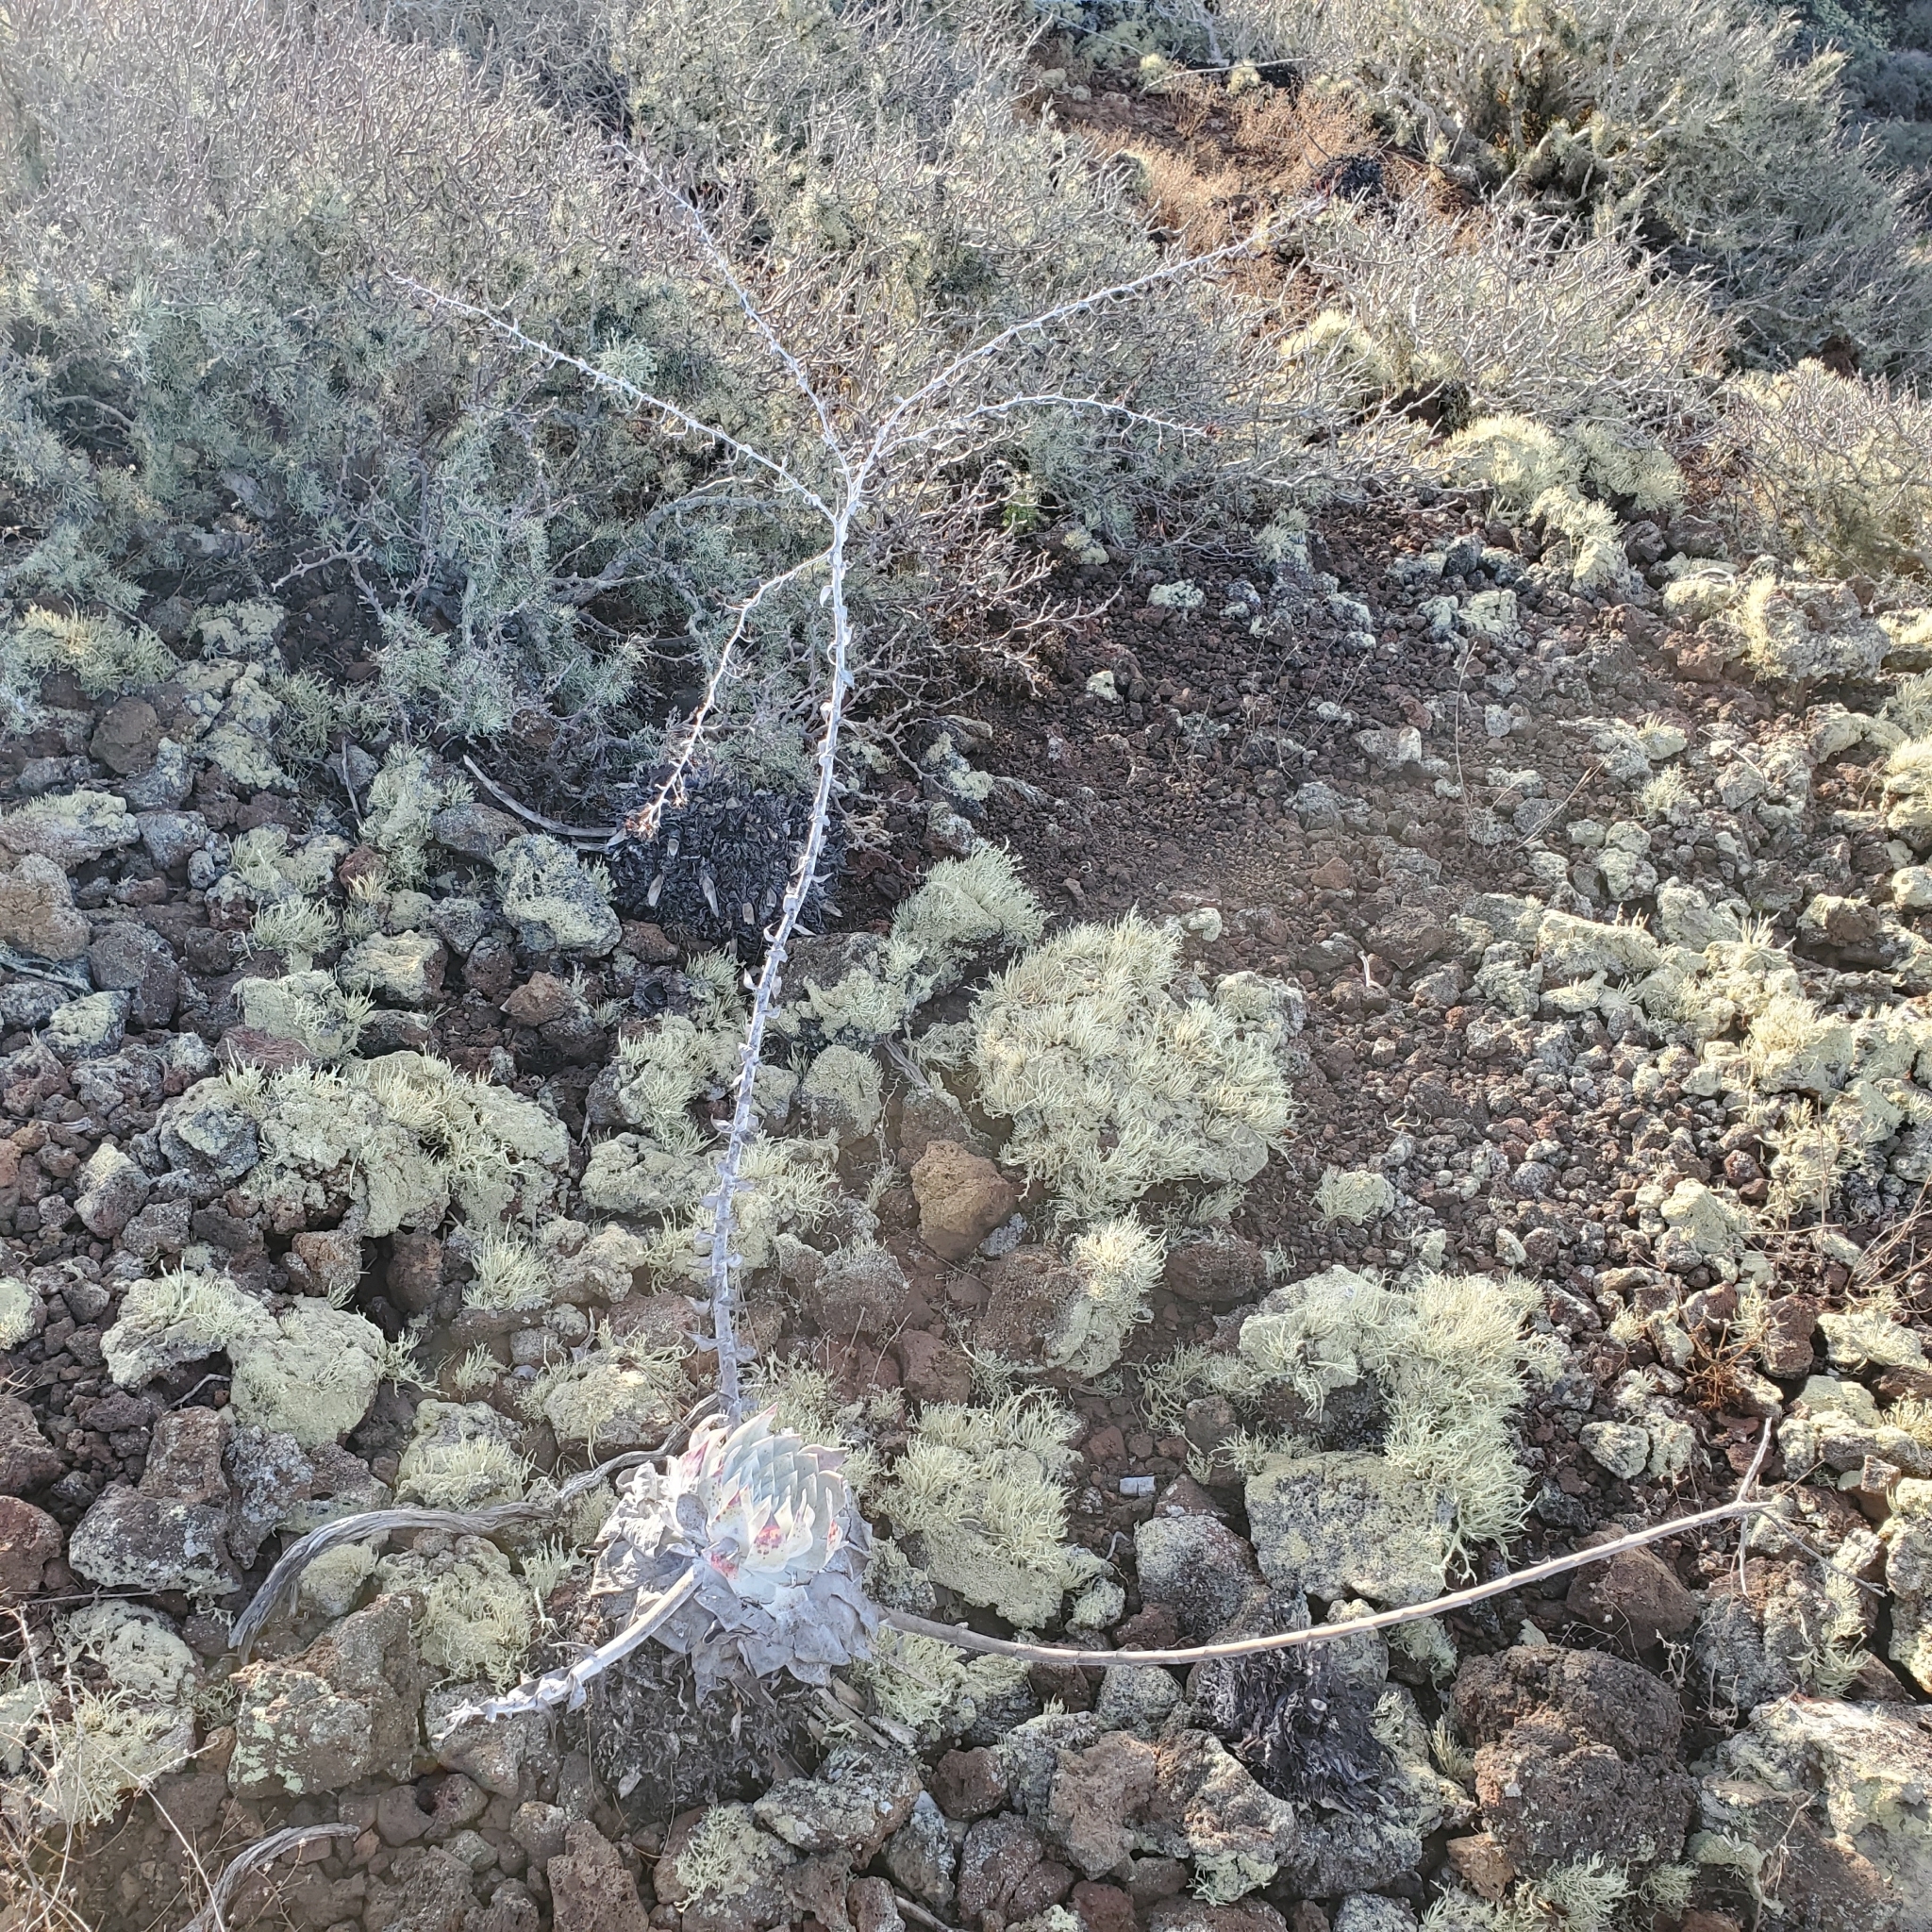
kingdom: Plantae
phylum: Tracheophyta
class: Magnoliopsida
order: Saxifragales
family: Crassulaceae
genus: Dudleya
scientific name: Dudleya anthonyi
